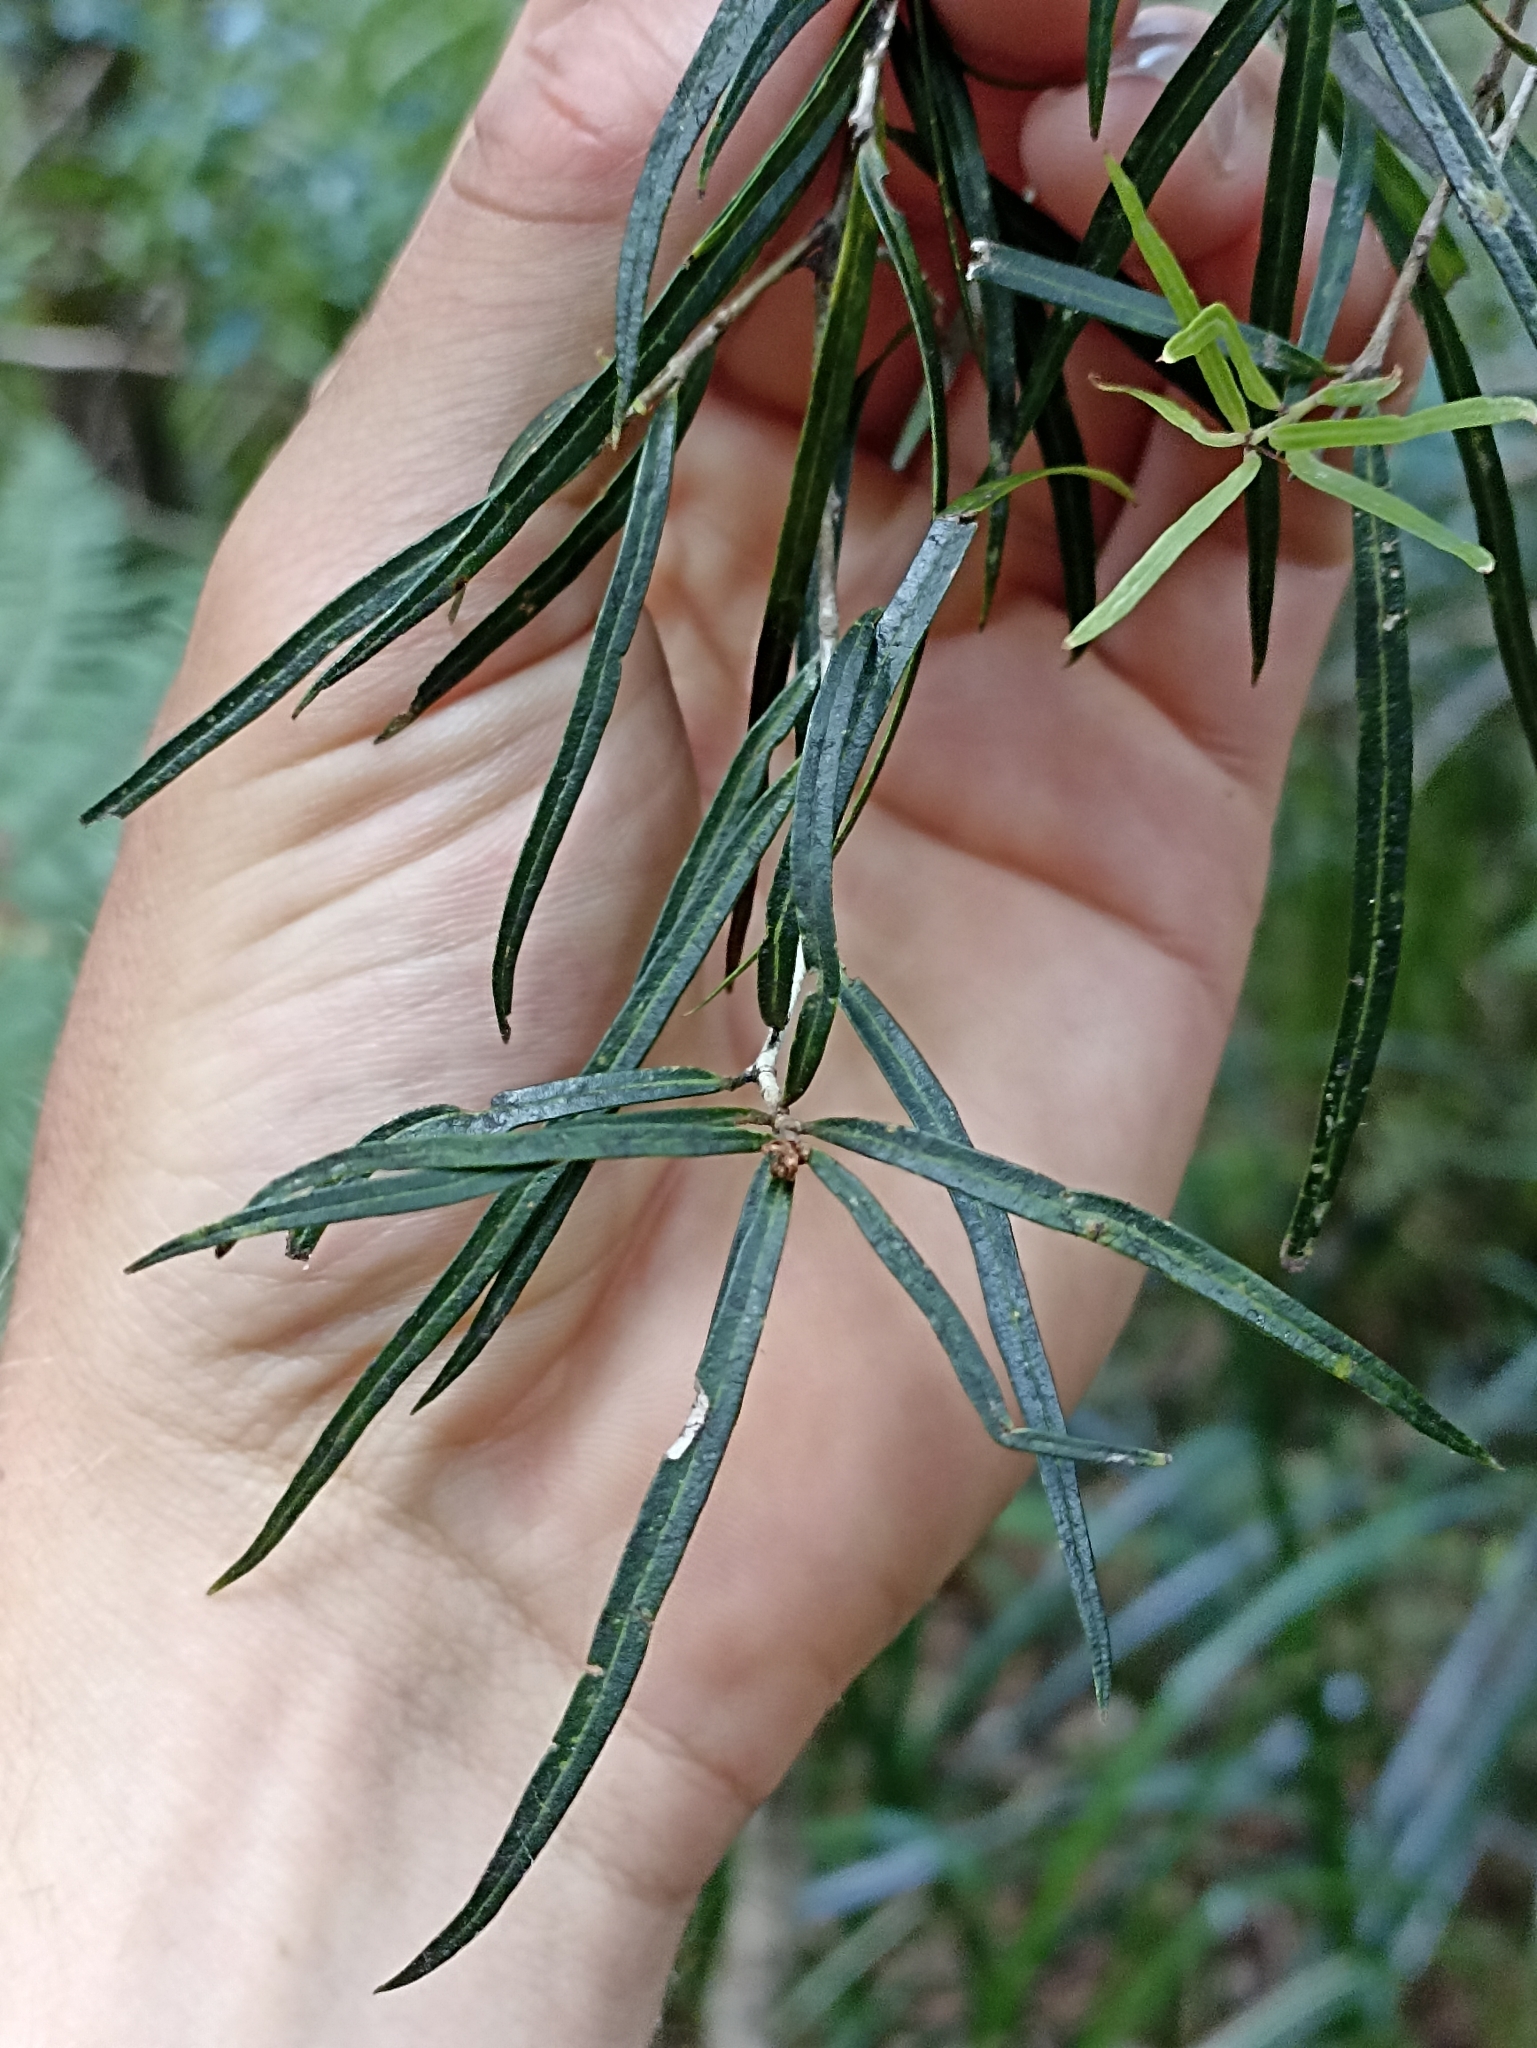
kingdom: Plantae
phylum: Tracheophyta
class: Magnoliopsida
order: Lamiales
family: Oleaceae
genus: Nestegis
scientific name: Nestegis montana
